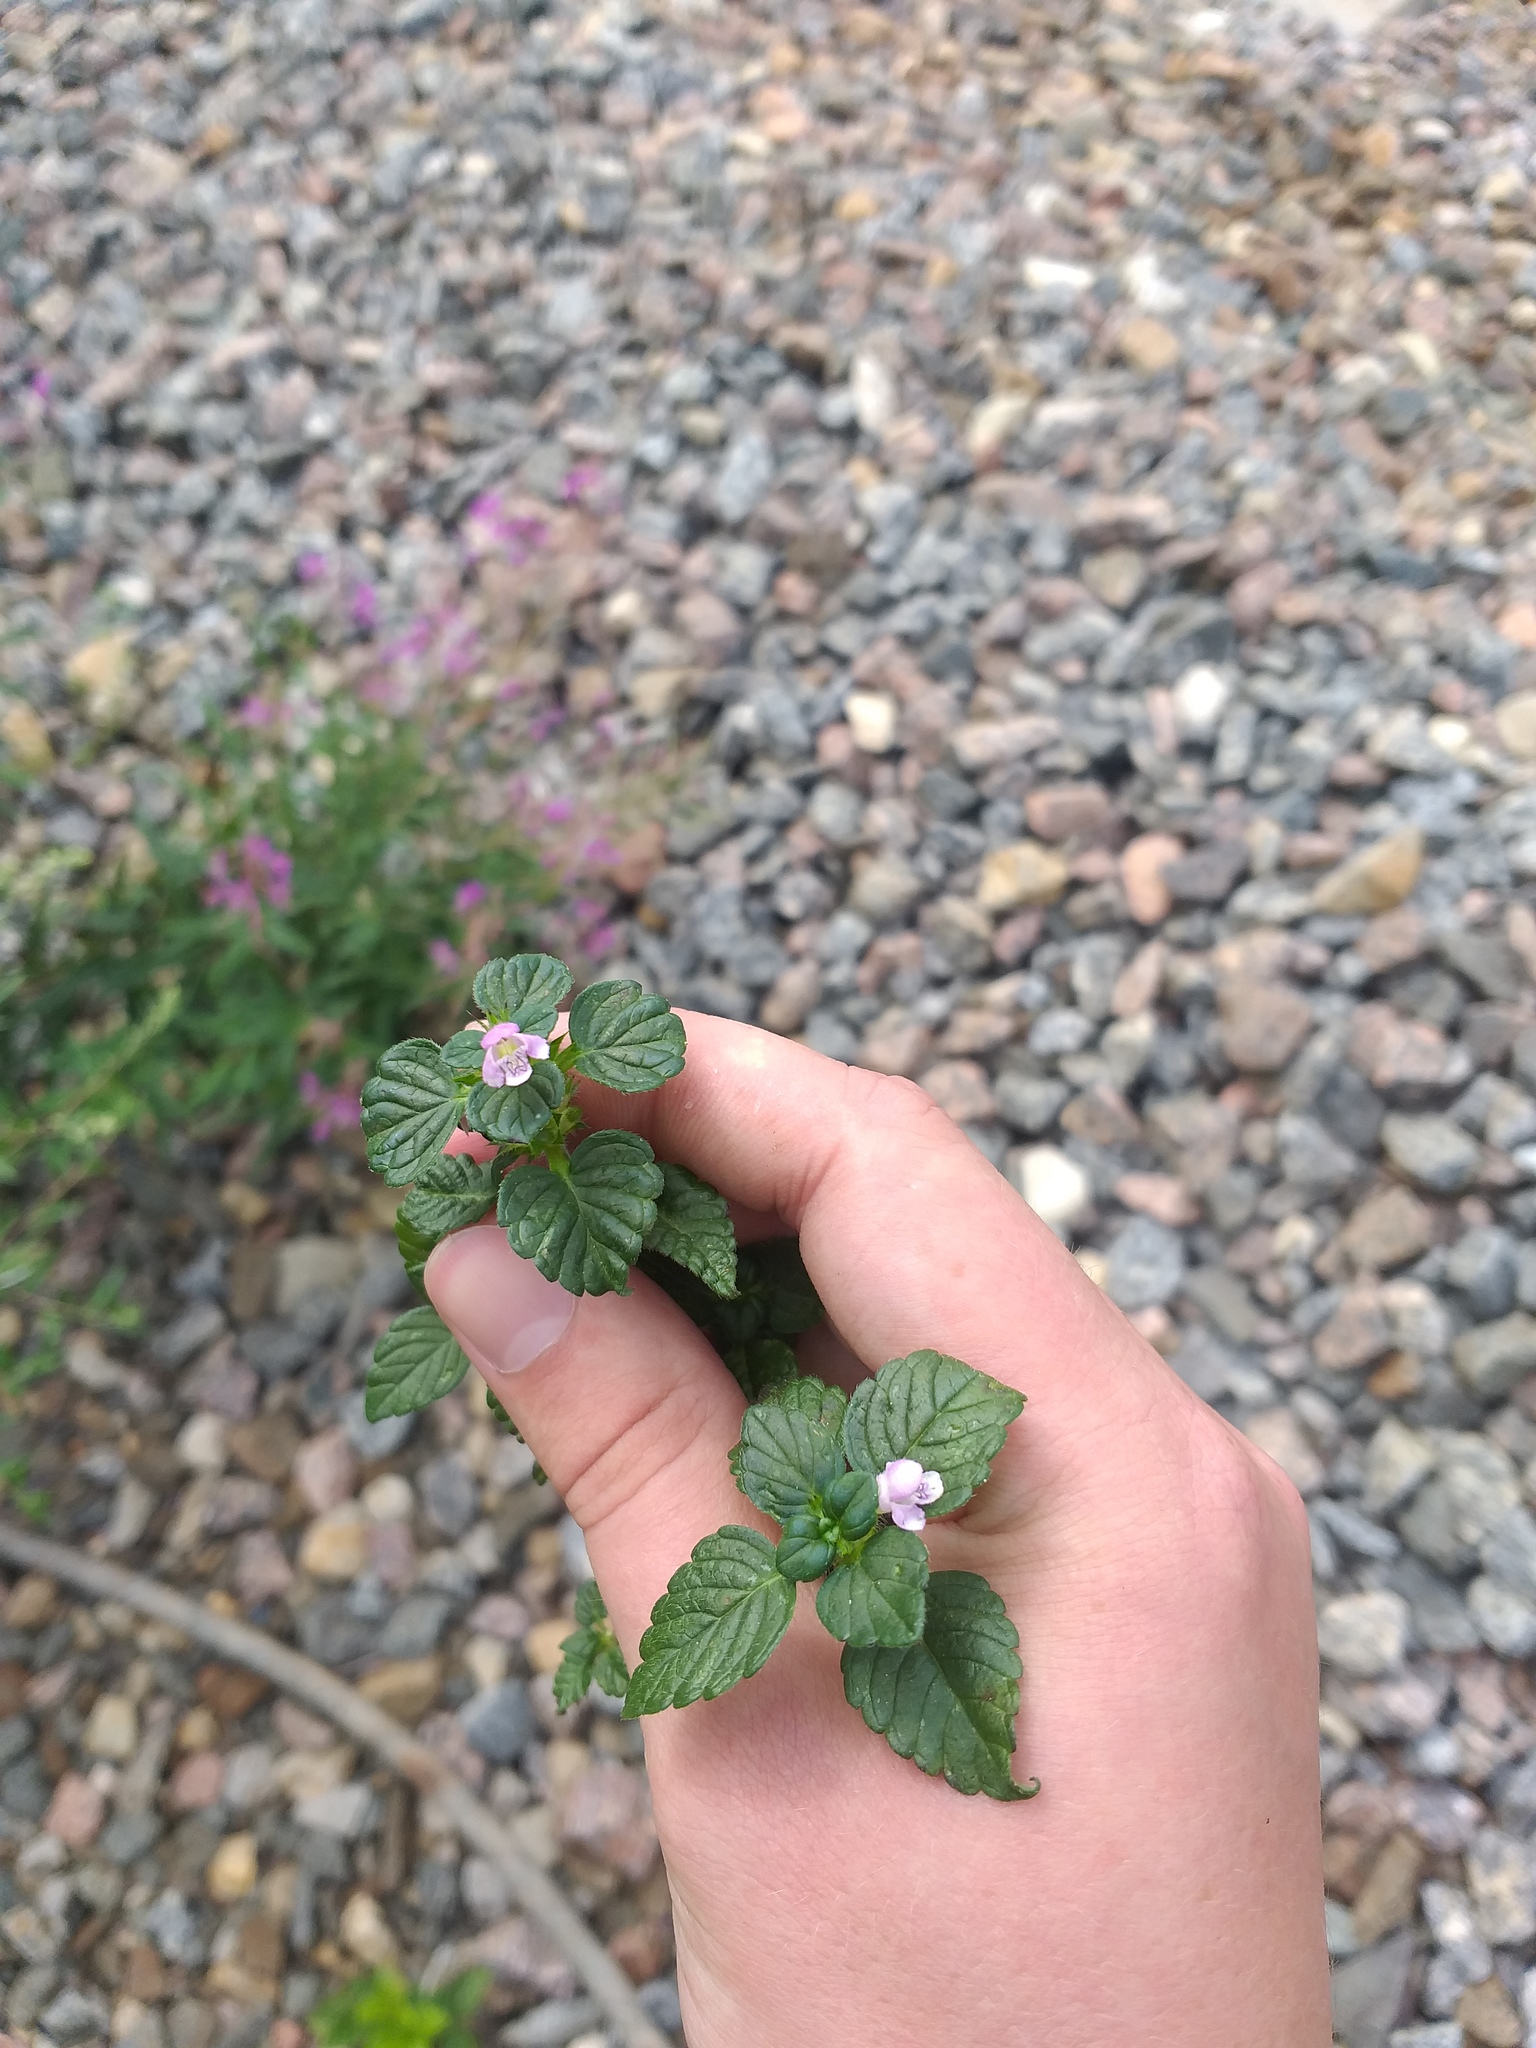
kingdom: Plantae
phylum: Tracheophyta
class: Magnoliopsida
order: Lamiales
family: Lamiaceae
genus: Galeopsis
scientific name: Galeopsis tetrahit
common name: Common hemp-nettle
